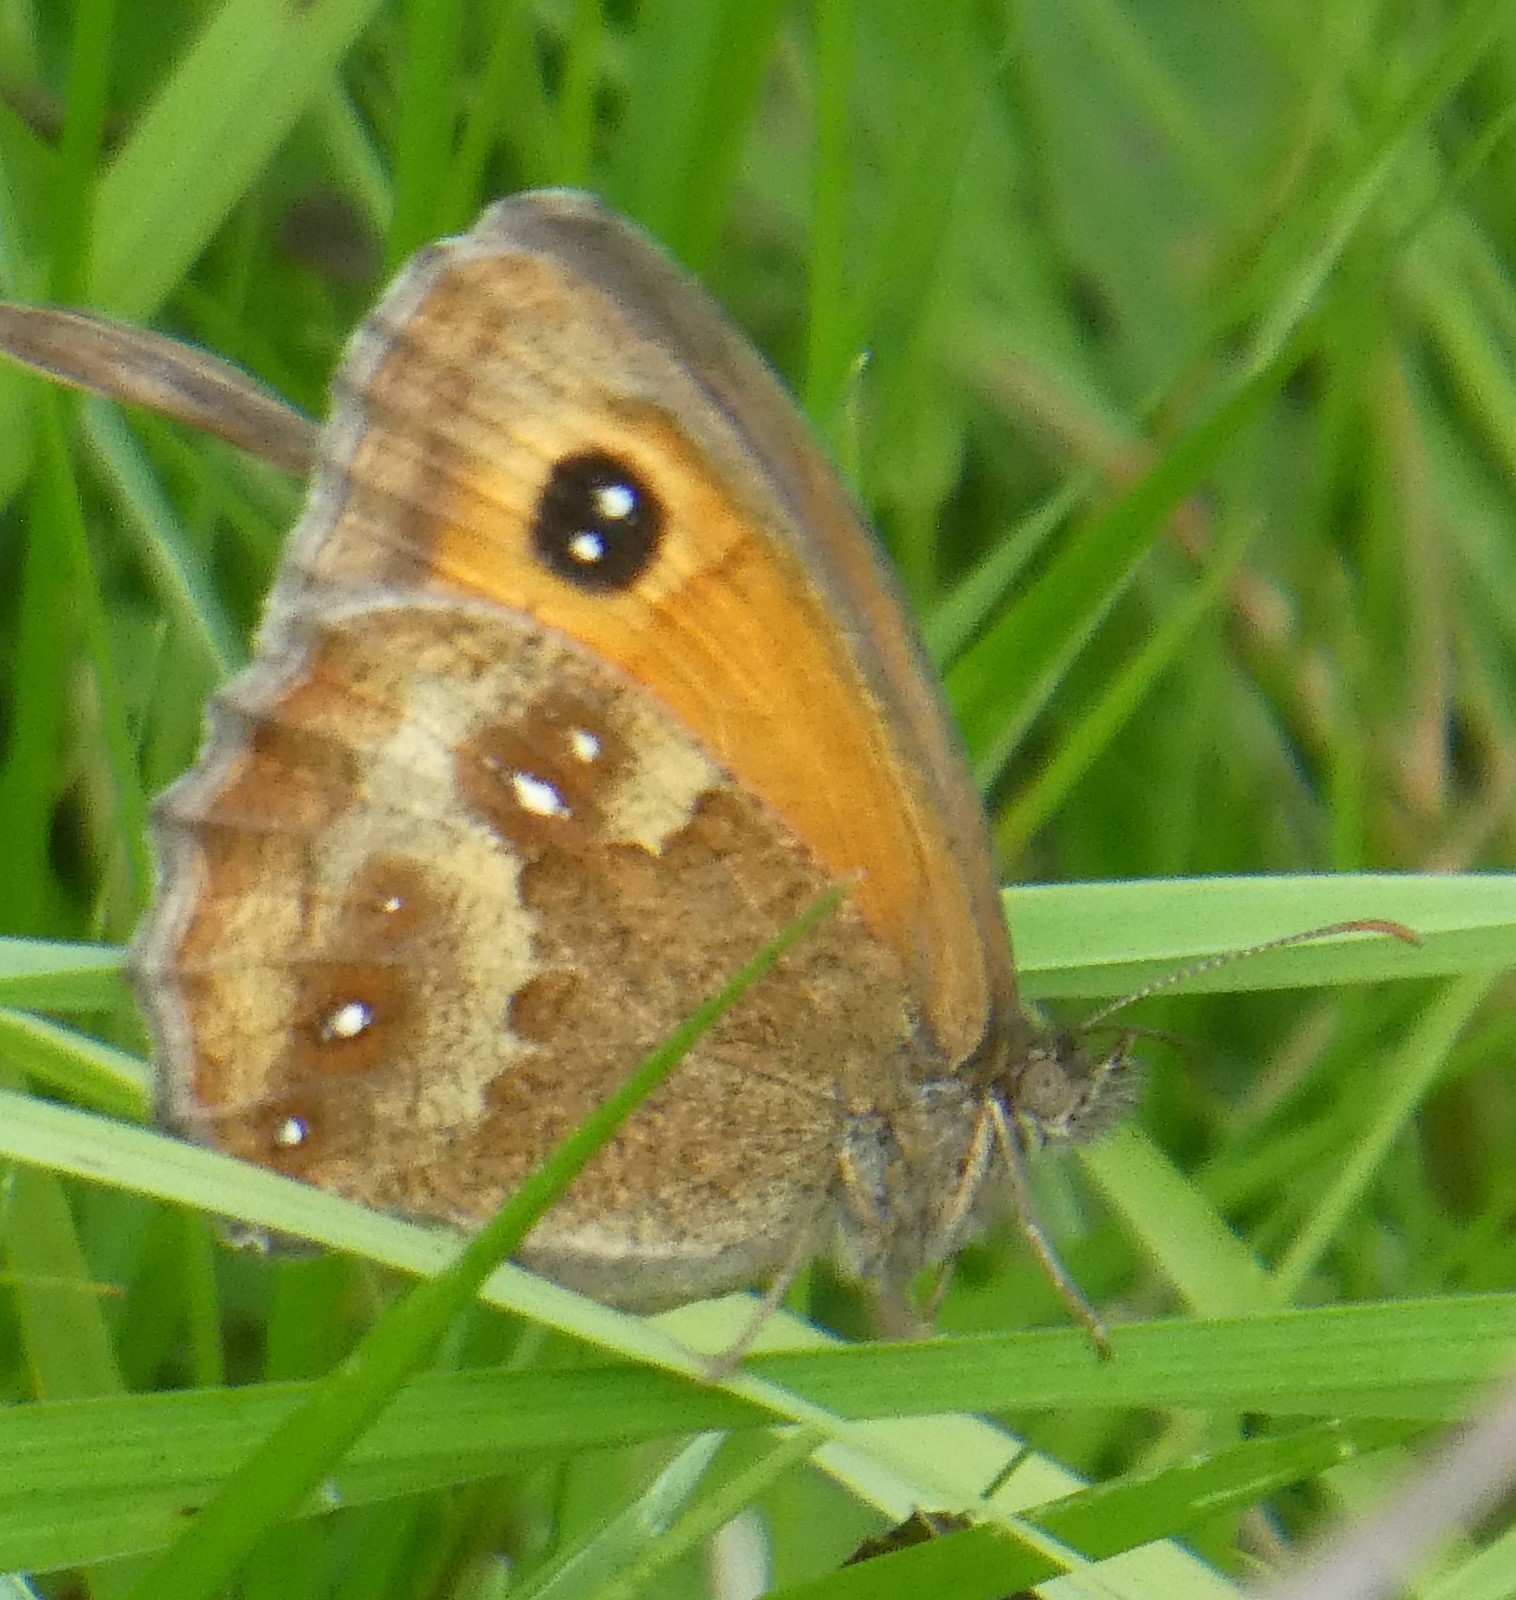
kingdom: Animalia
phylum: Arthropoda
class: Insecta
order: Lepidoptera
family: Nymphalidae
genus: Pyronia
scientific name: Pyronia tithonus
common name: Gatekeeper
